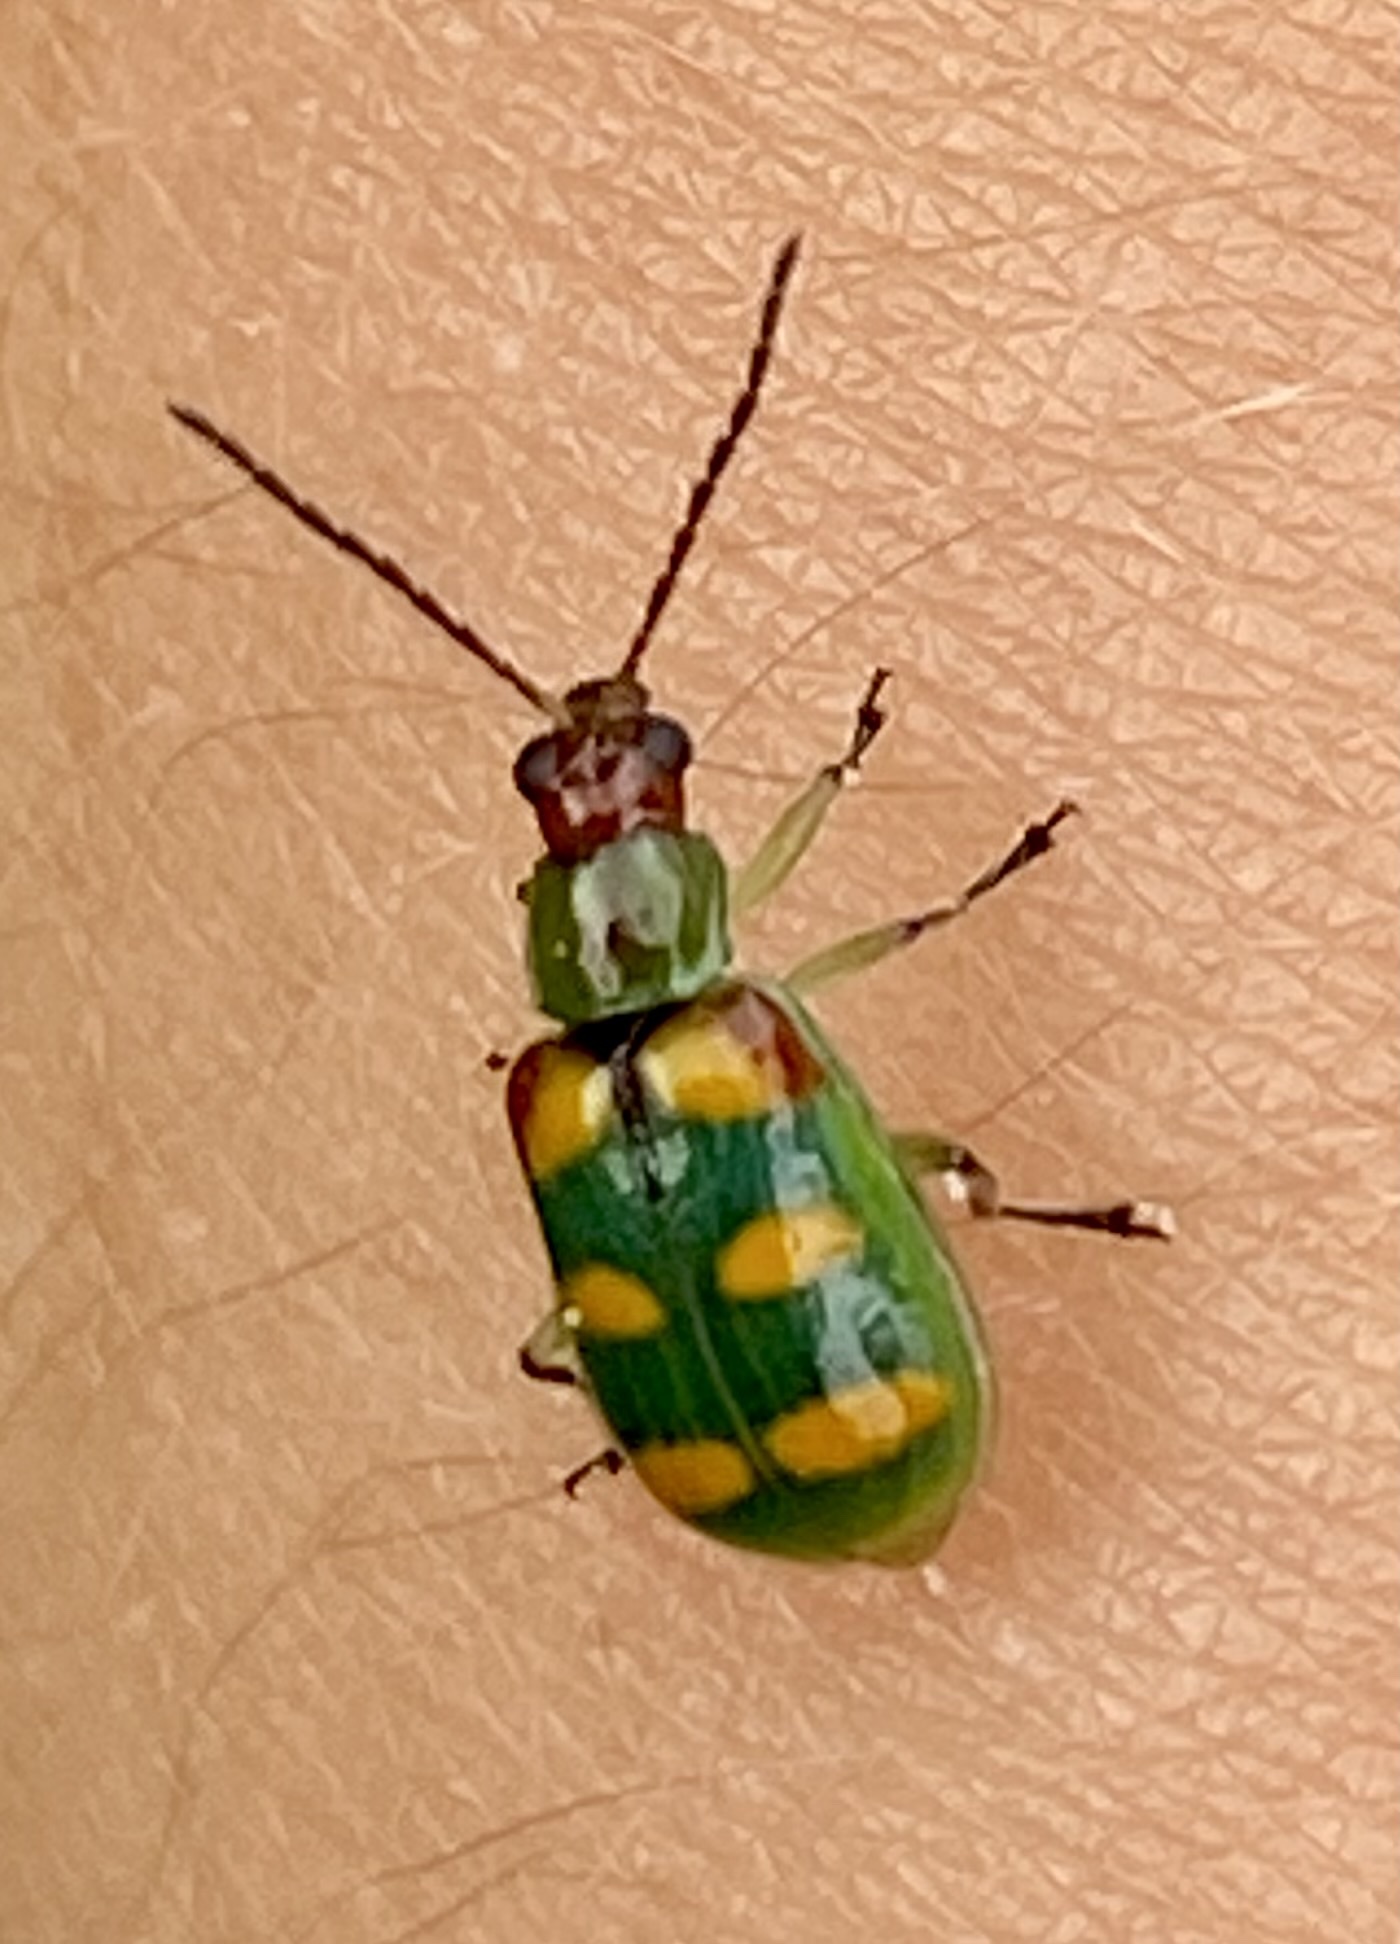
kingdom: Animalia
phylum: Arthropoda
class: Insecta
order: Coleoptera
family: Chrysomelidae
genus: Diabrotica
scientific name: Diabrotica speciosa
